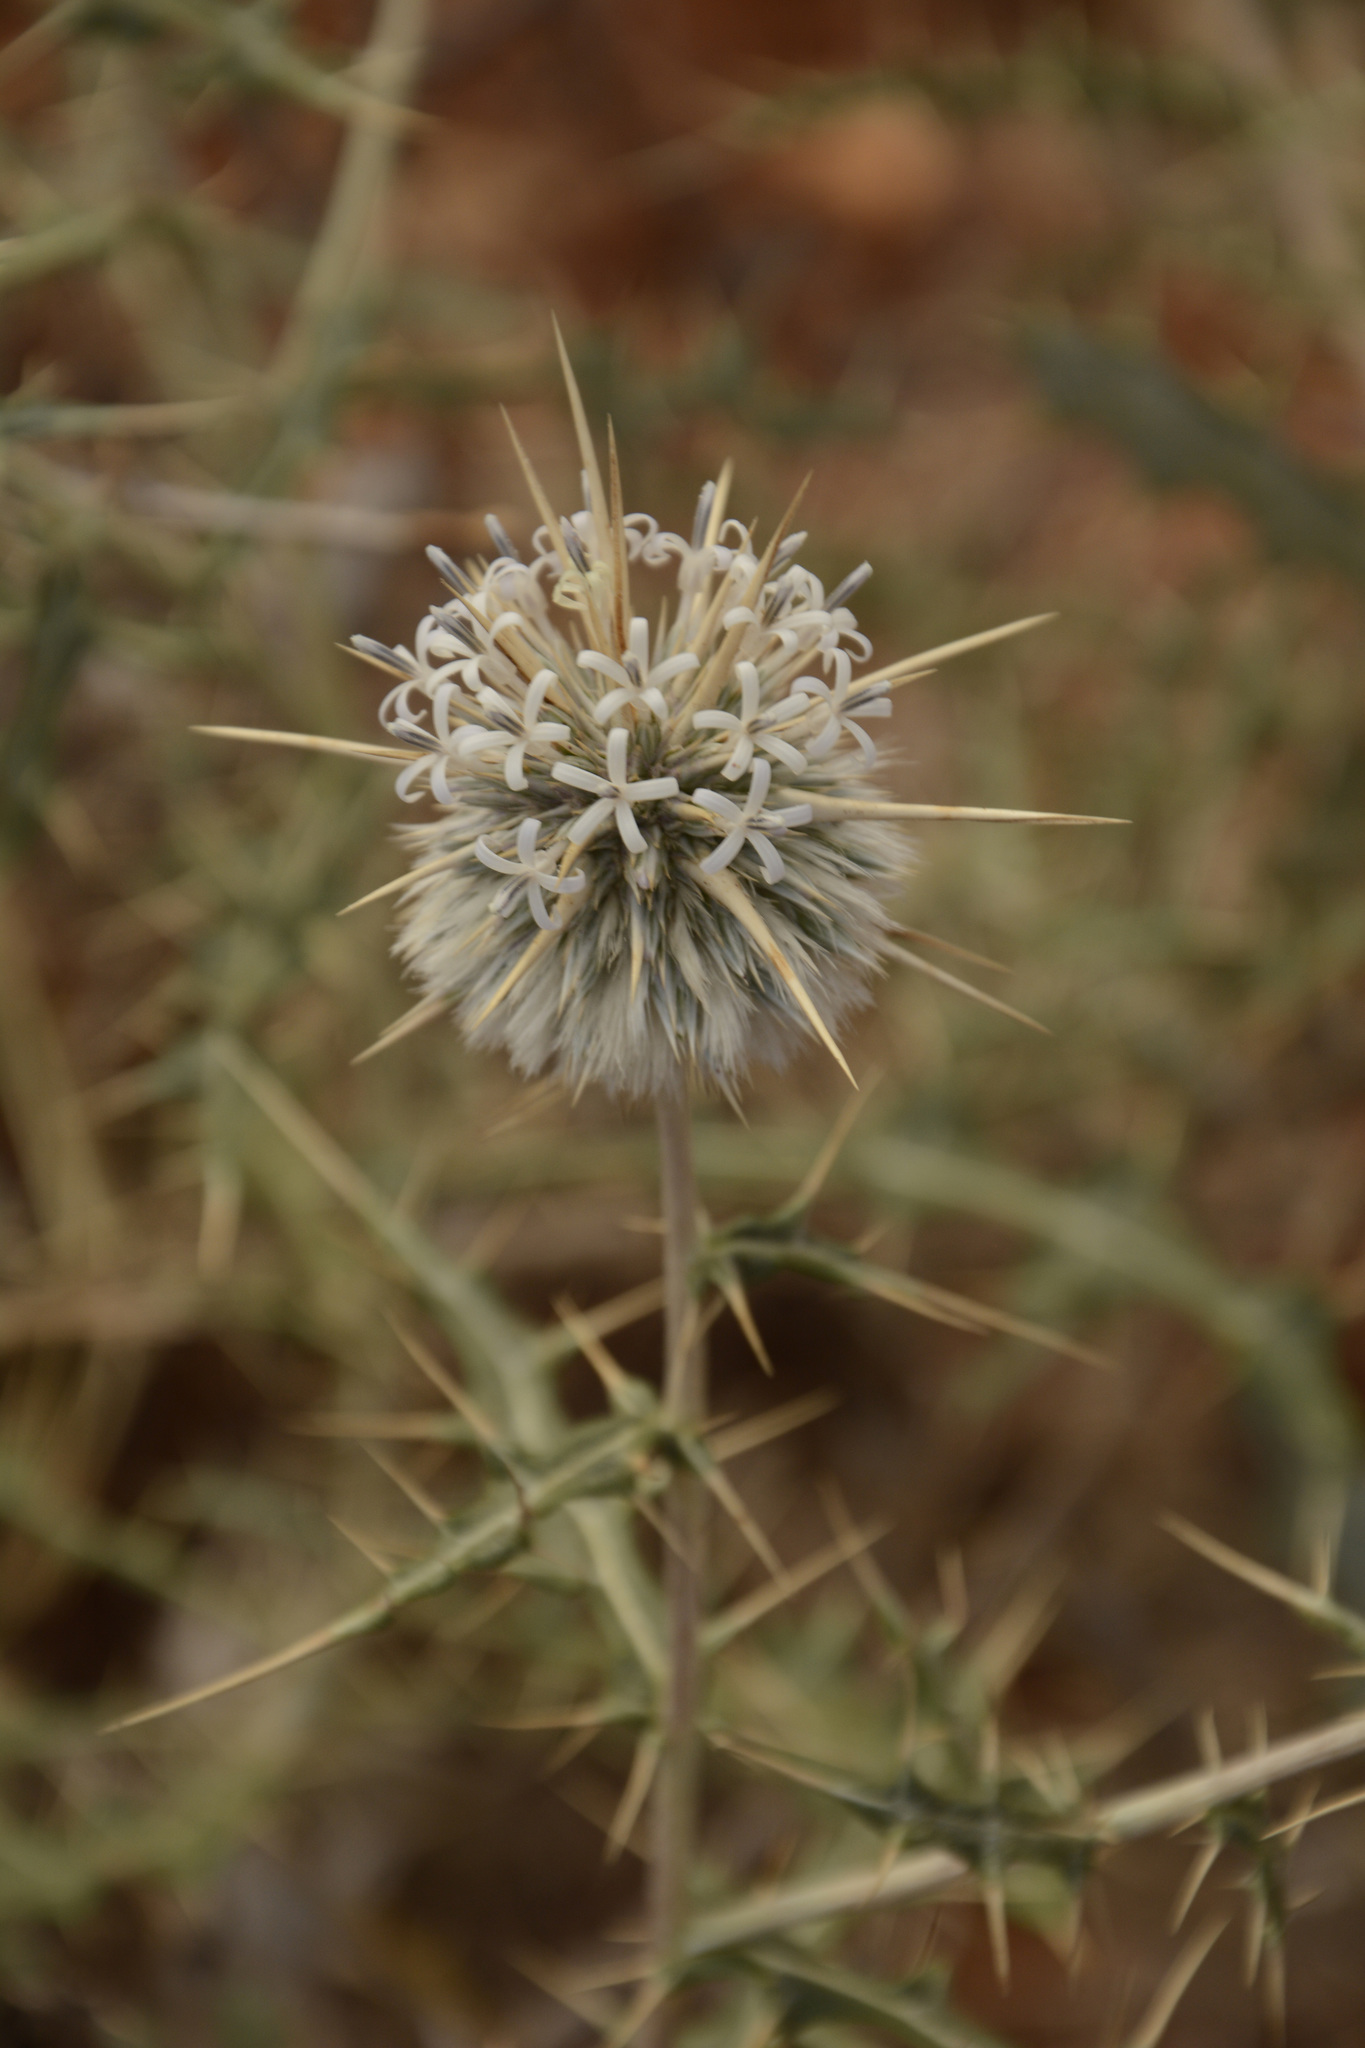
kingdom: Plantae
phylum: Tracheophyta
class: Magnoliopsida
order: Asterales
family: Asteraceae
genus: Echinops
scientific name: Echinops echinatus
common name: Indian globe thistle
